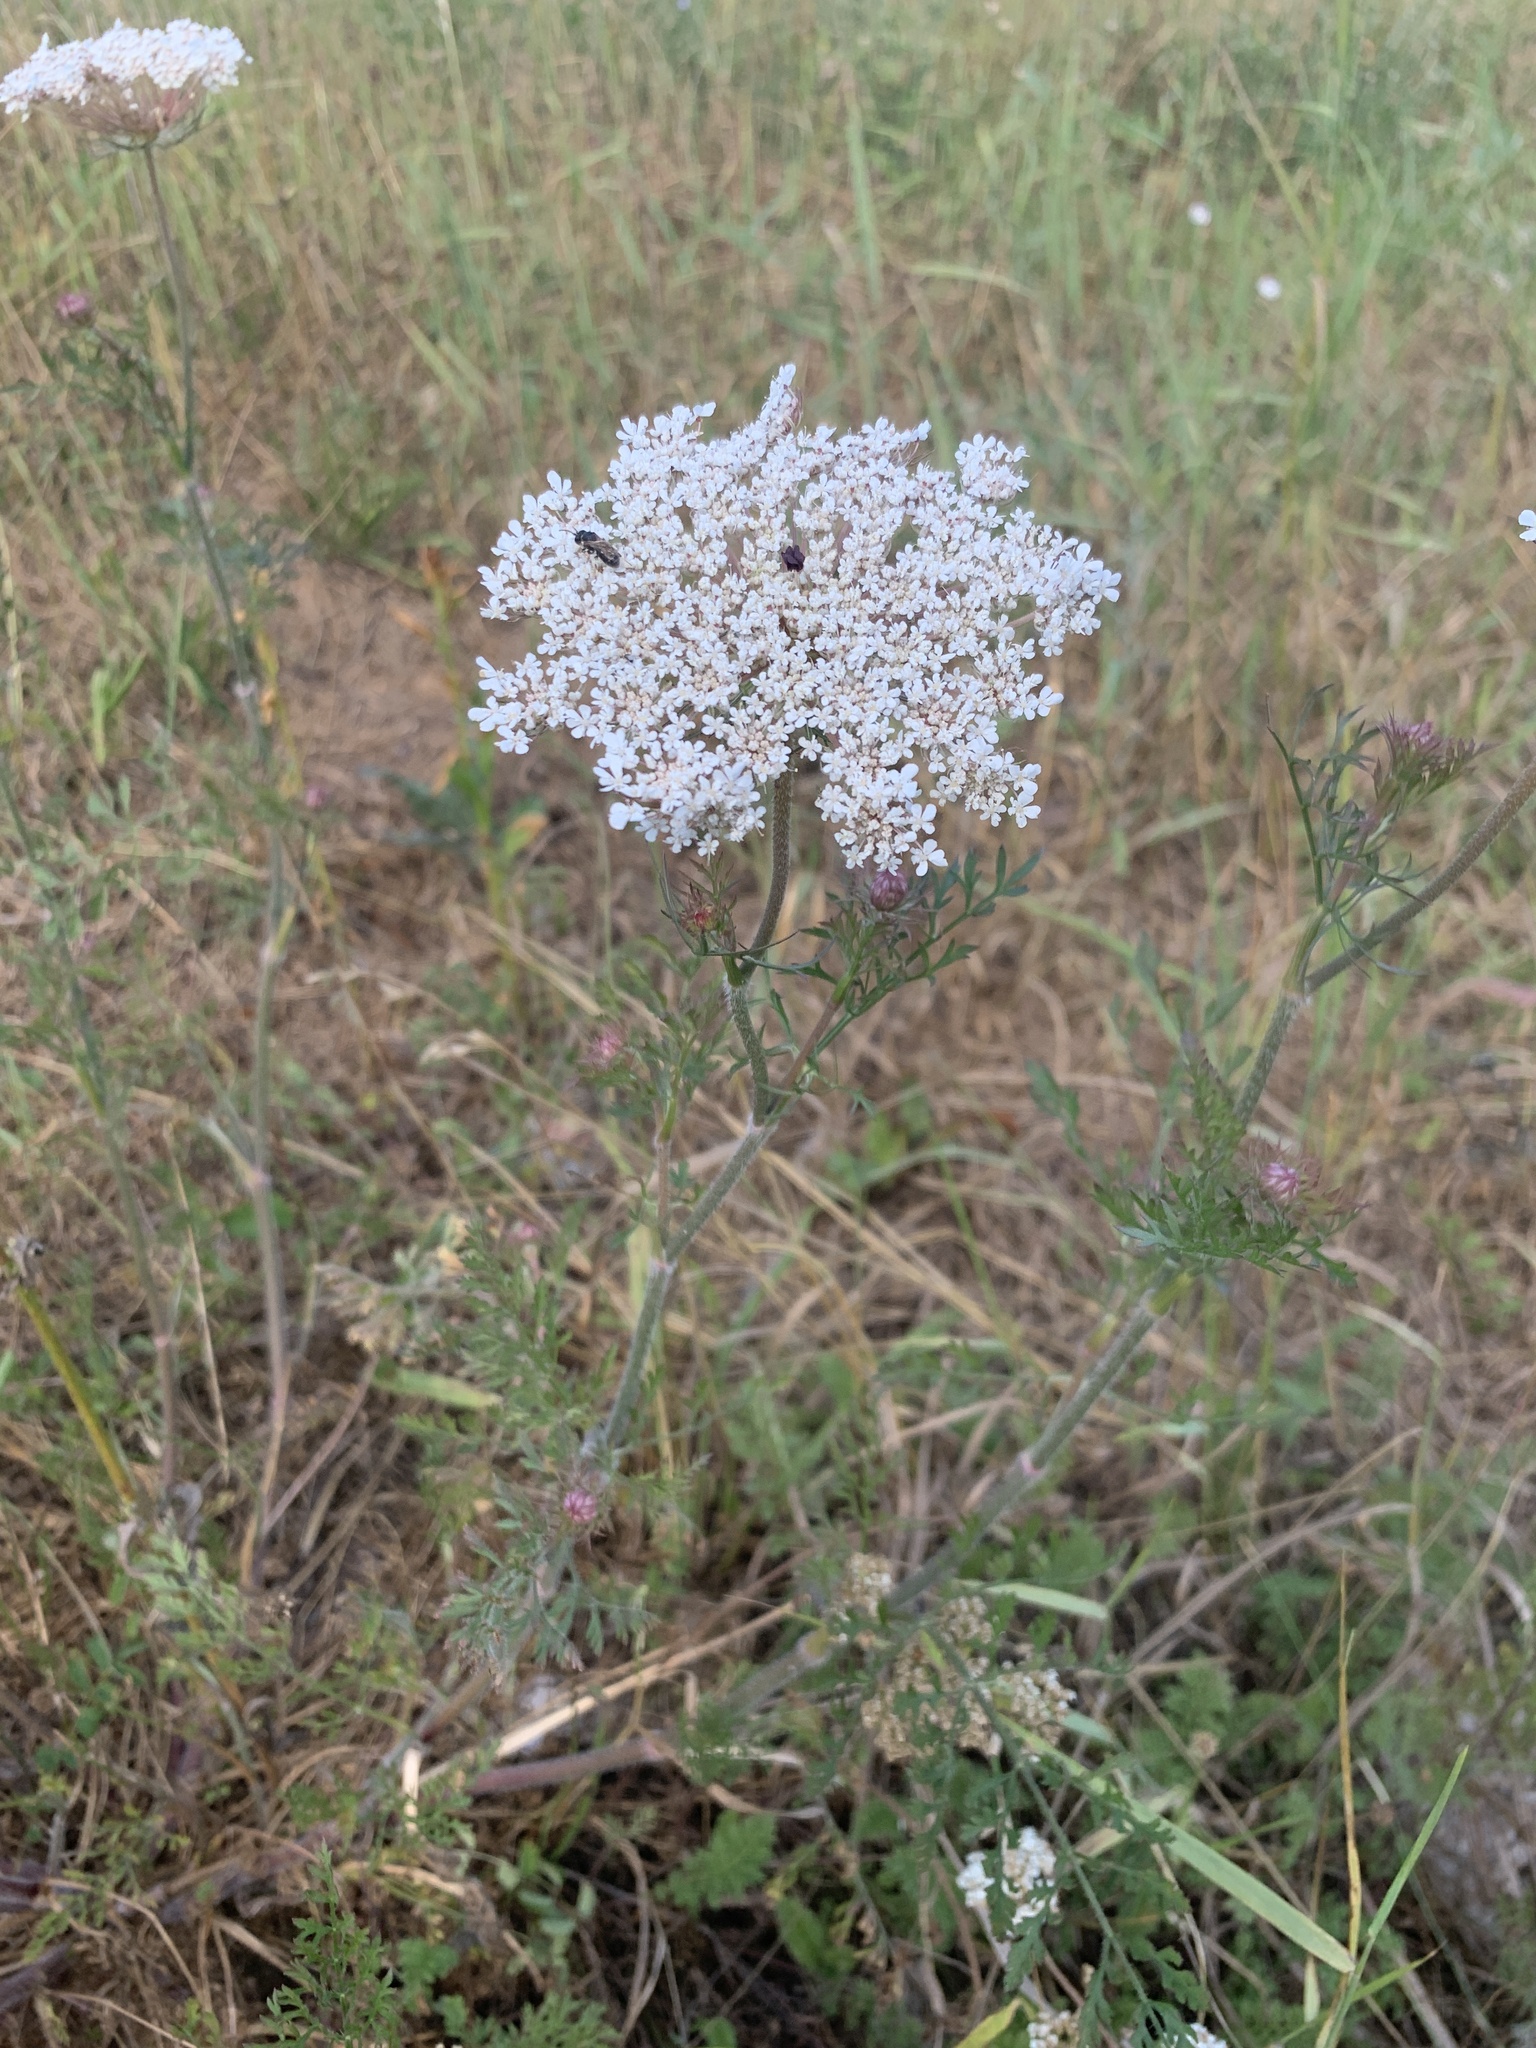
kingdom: Plantae
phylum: Tracheophyta
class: Magnoliopsida
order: Apiales
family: Apiaceae
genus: Daucus
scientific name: Daucus carota
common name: Wild carrot
